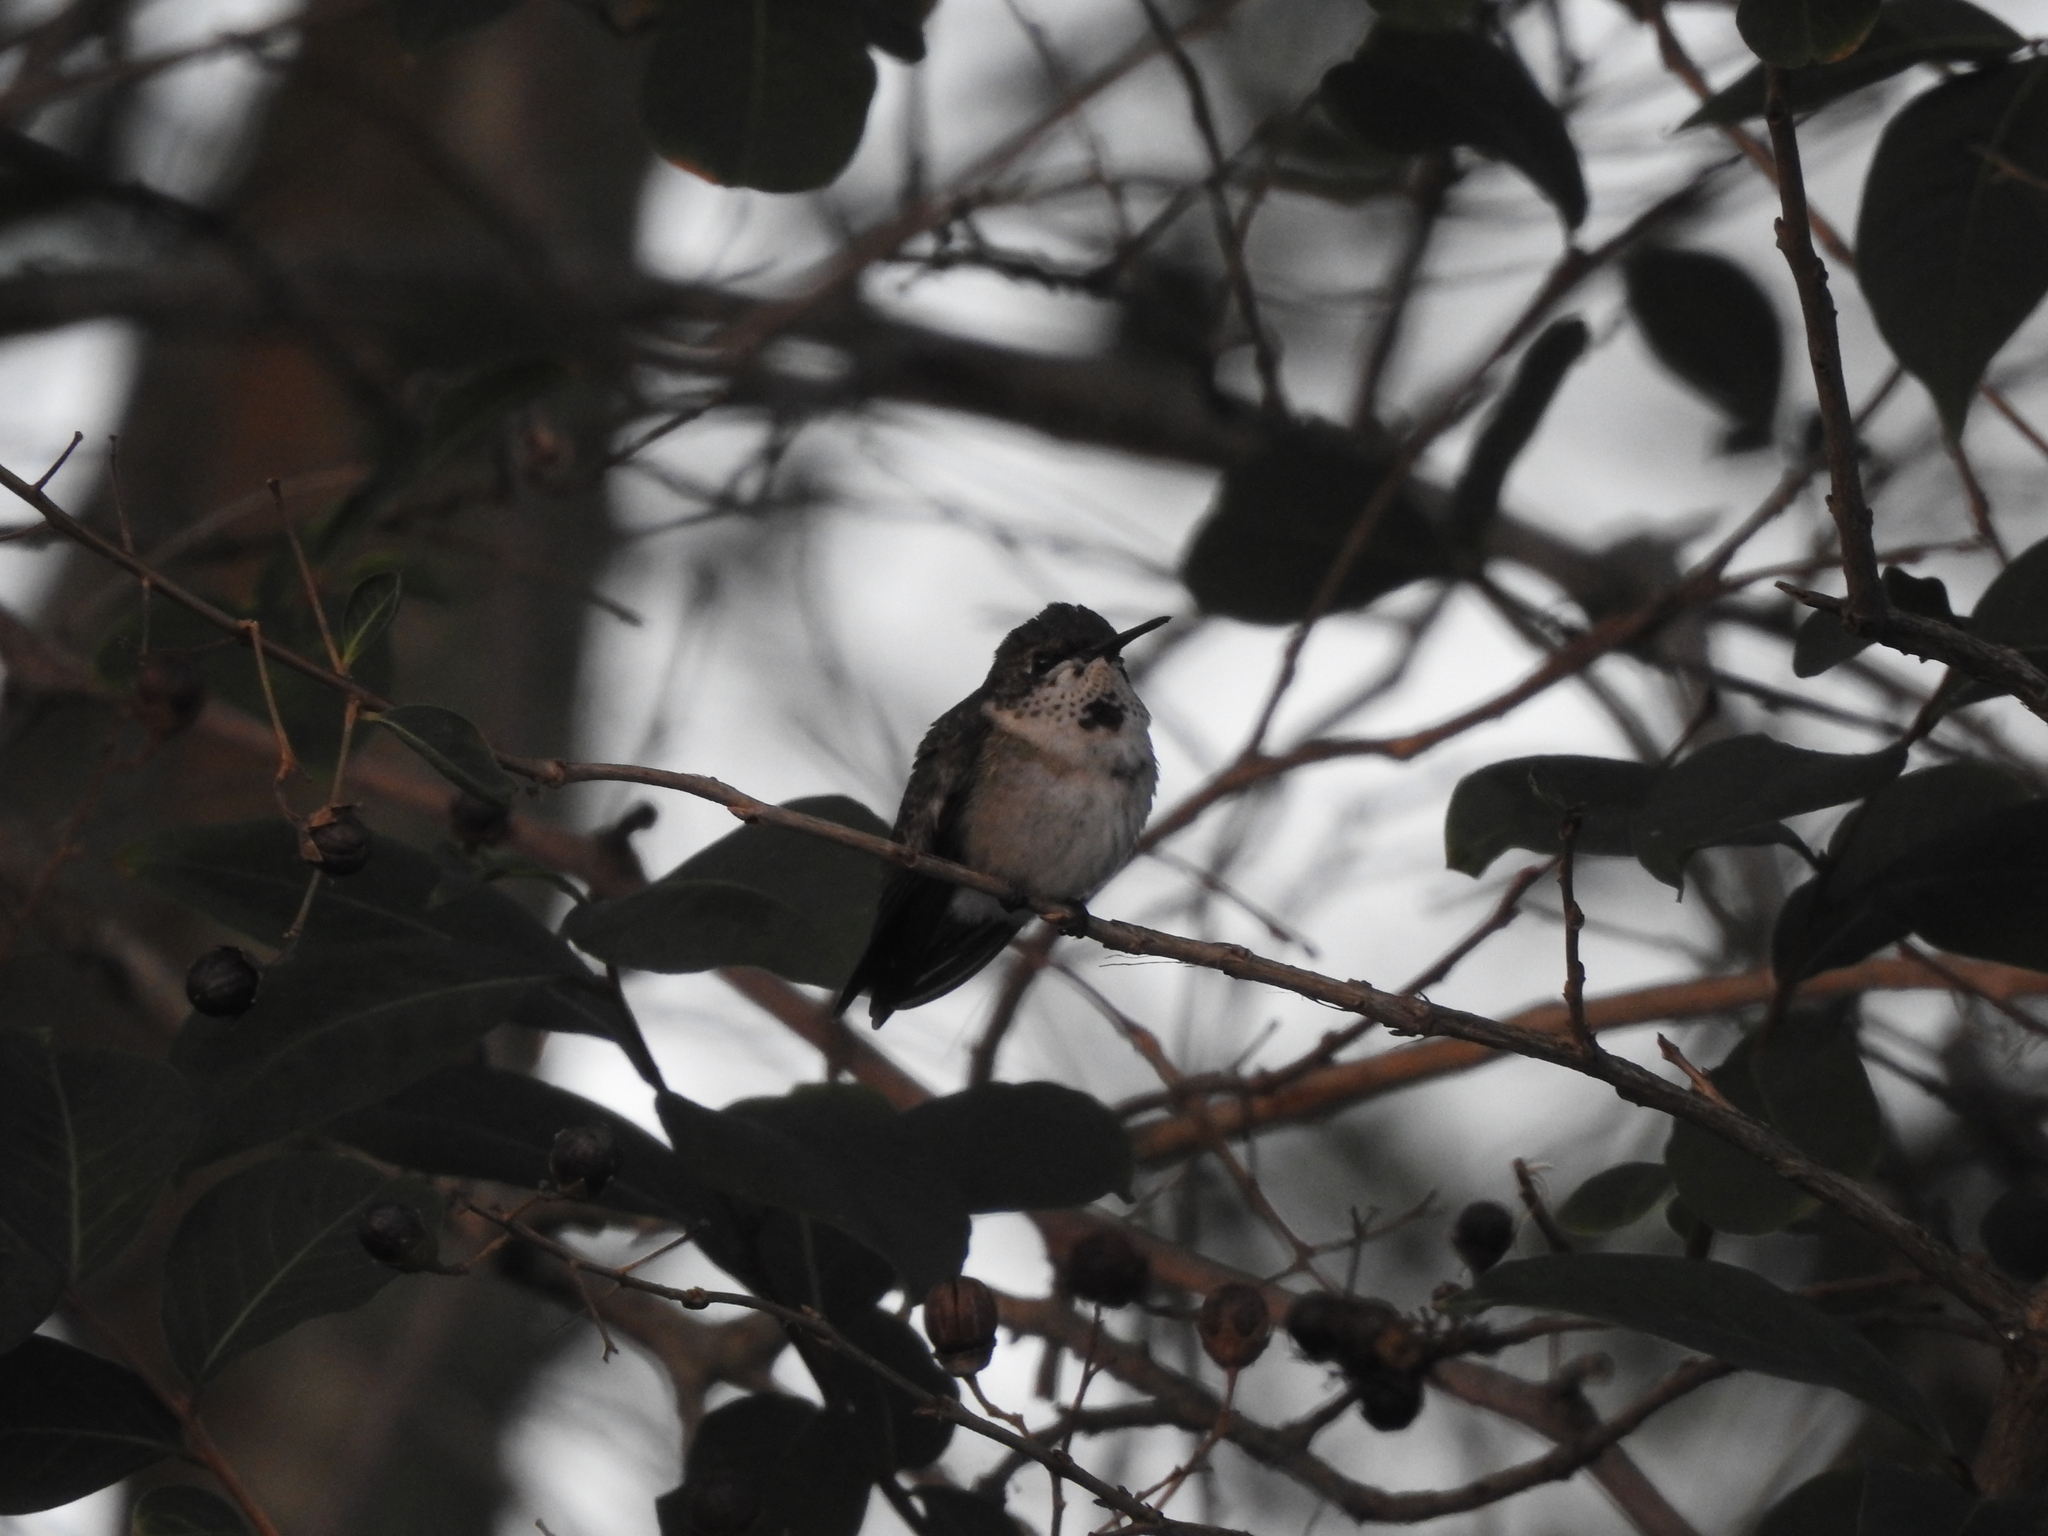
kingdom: Animalia
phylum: Chordata
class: Aves
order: Apodiformes
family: Trochilidae
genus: Archilochus
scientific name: Archilochus colubris
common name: Ruby-throated hummingbird
